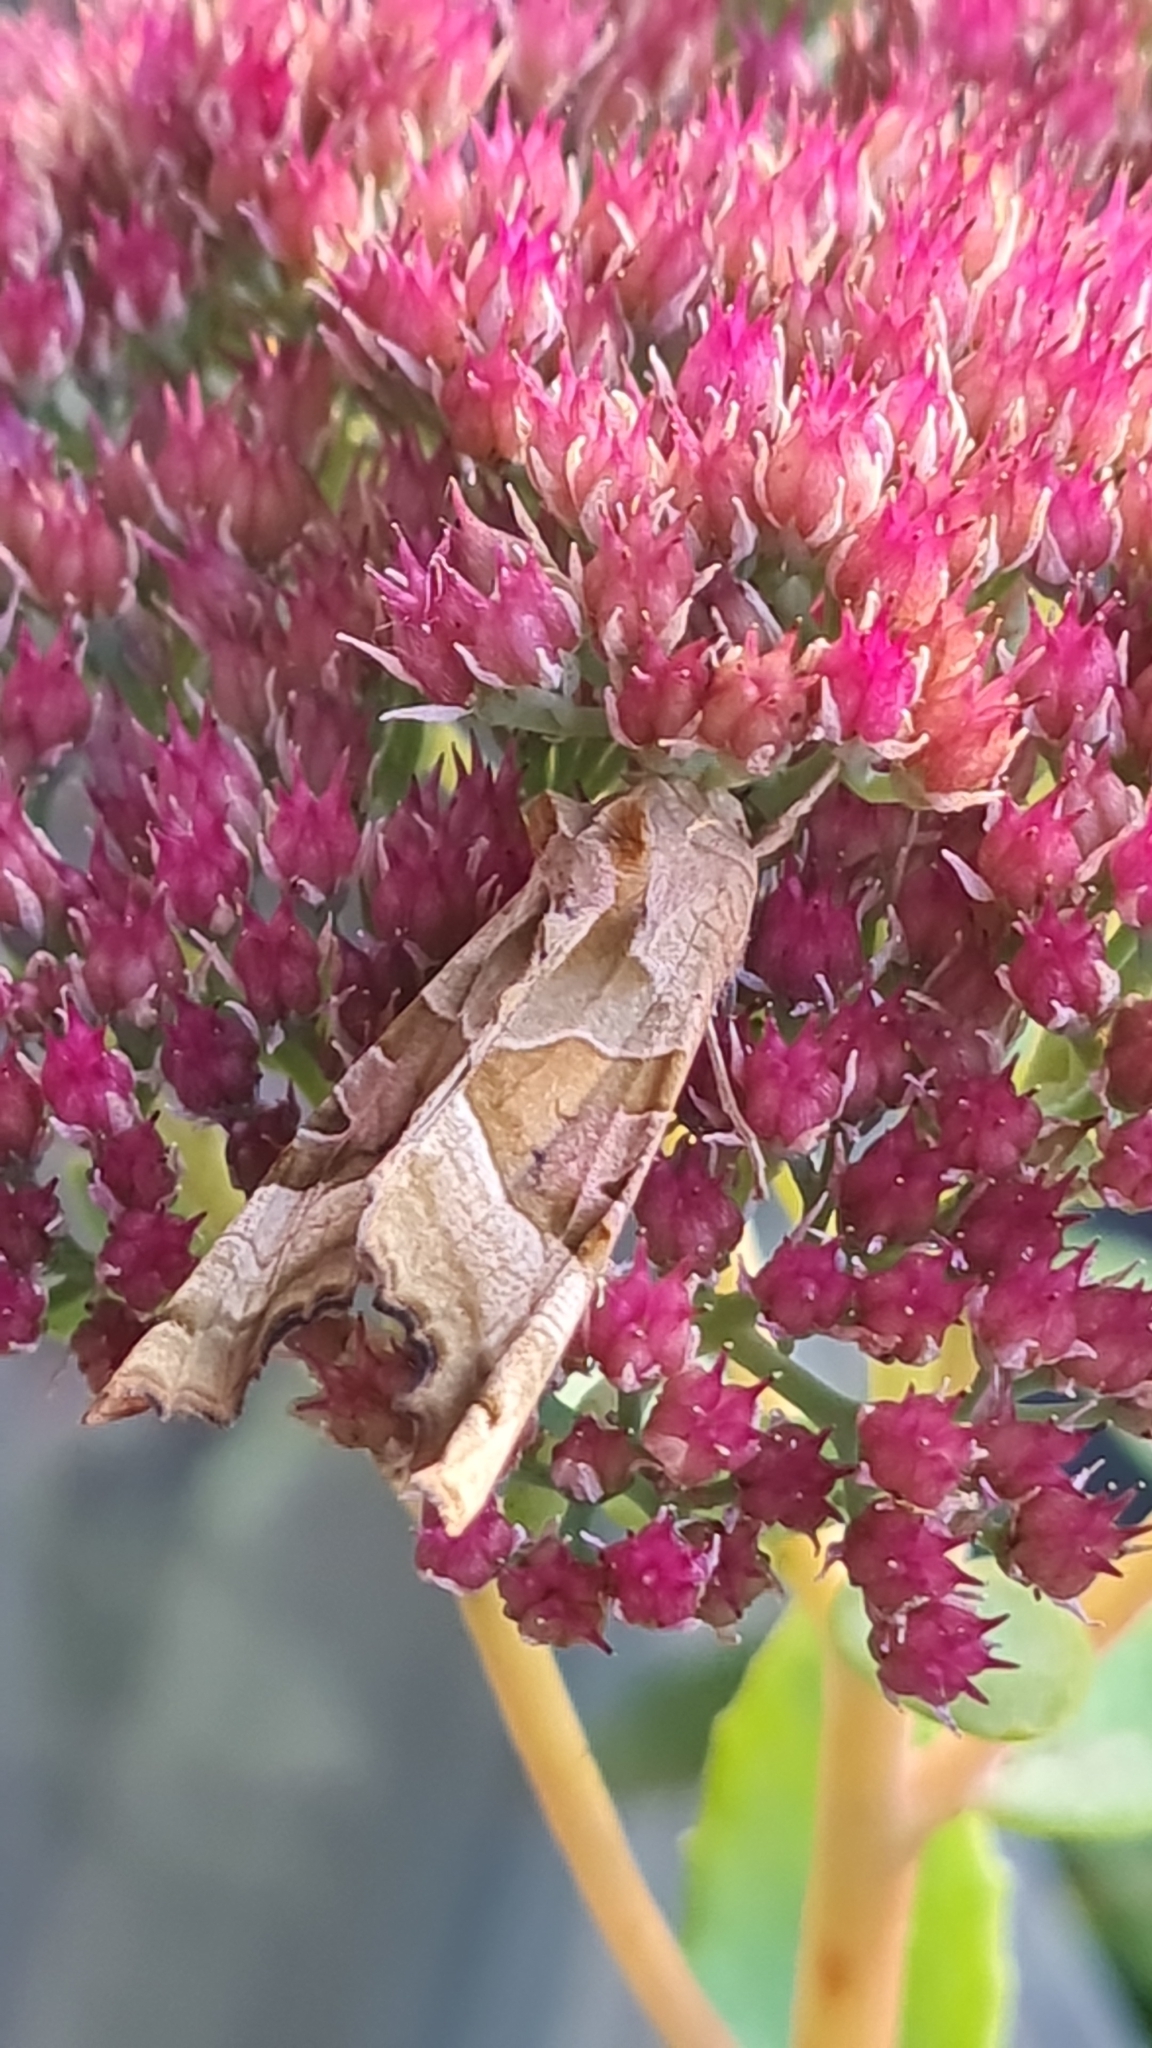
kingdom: Animalia
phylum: Arthropoda
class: Insecta
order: Lepidoptera
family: Noctuidae
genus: Phlogophora
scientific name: Phlogophora meticulosa
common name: Angle shades
